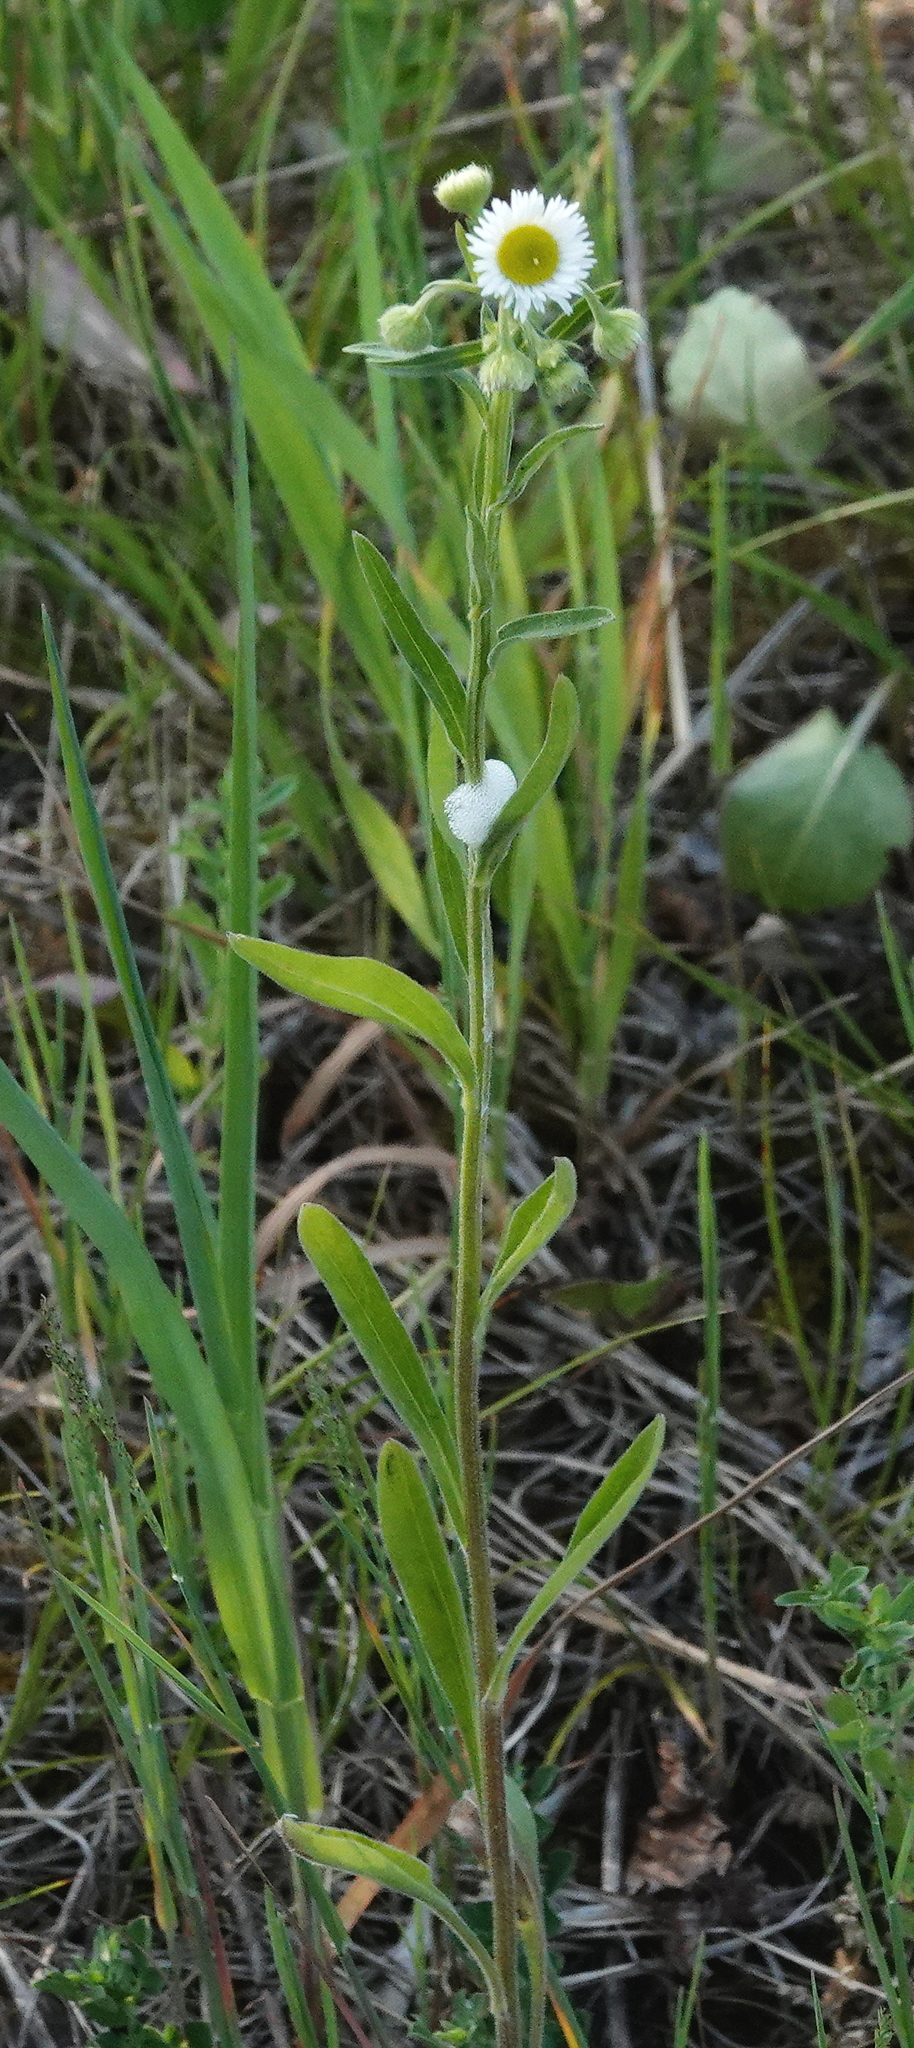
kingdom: Plantae
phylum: Tracheophyta
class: Magnoliopsida
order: Asterales
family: Asteraceae
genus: Erigeron
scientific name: Erigeron strigosus
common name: Common eastern fleabane
